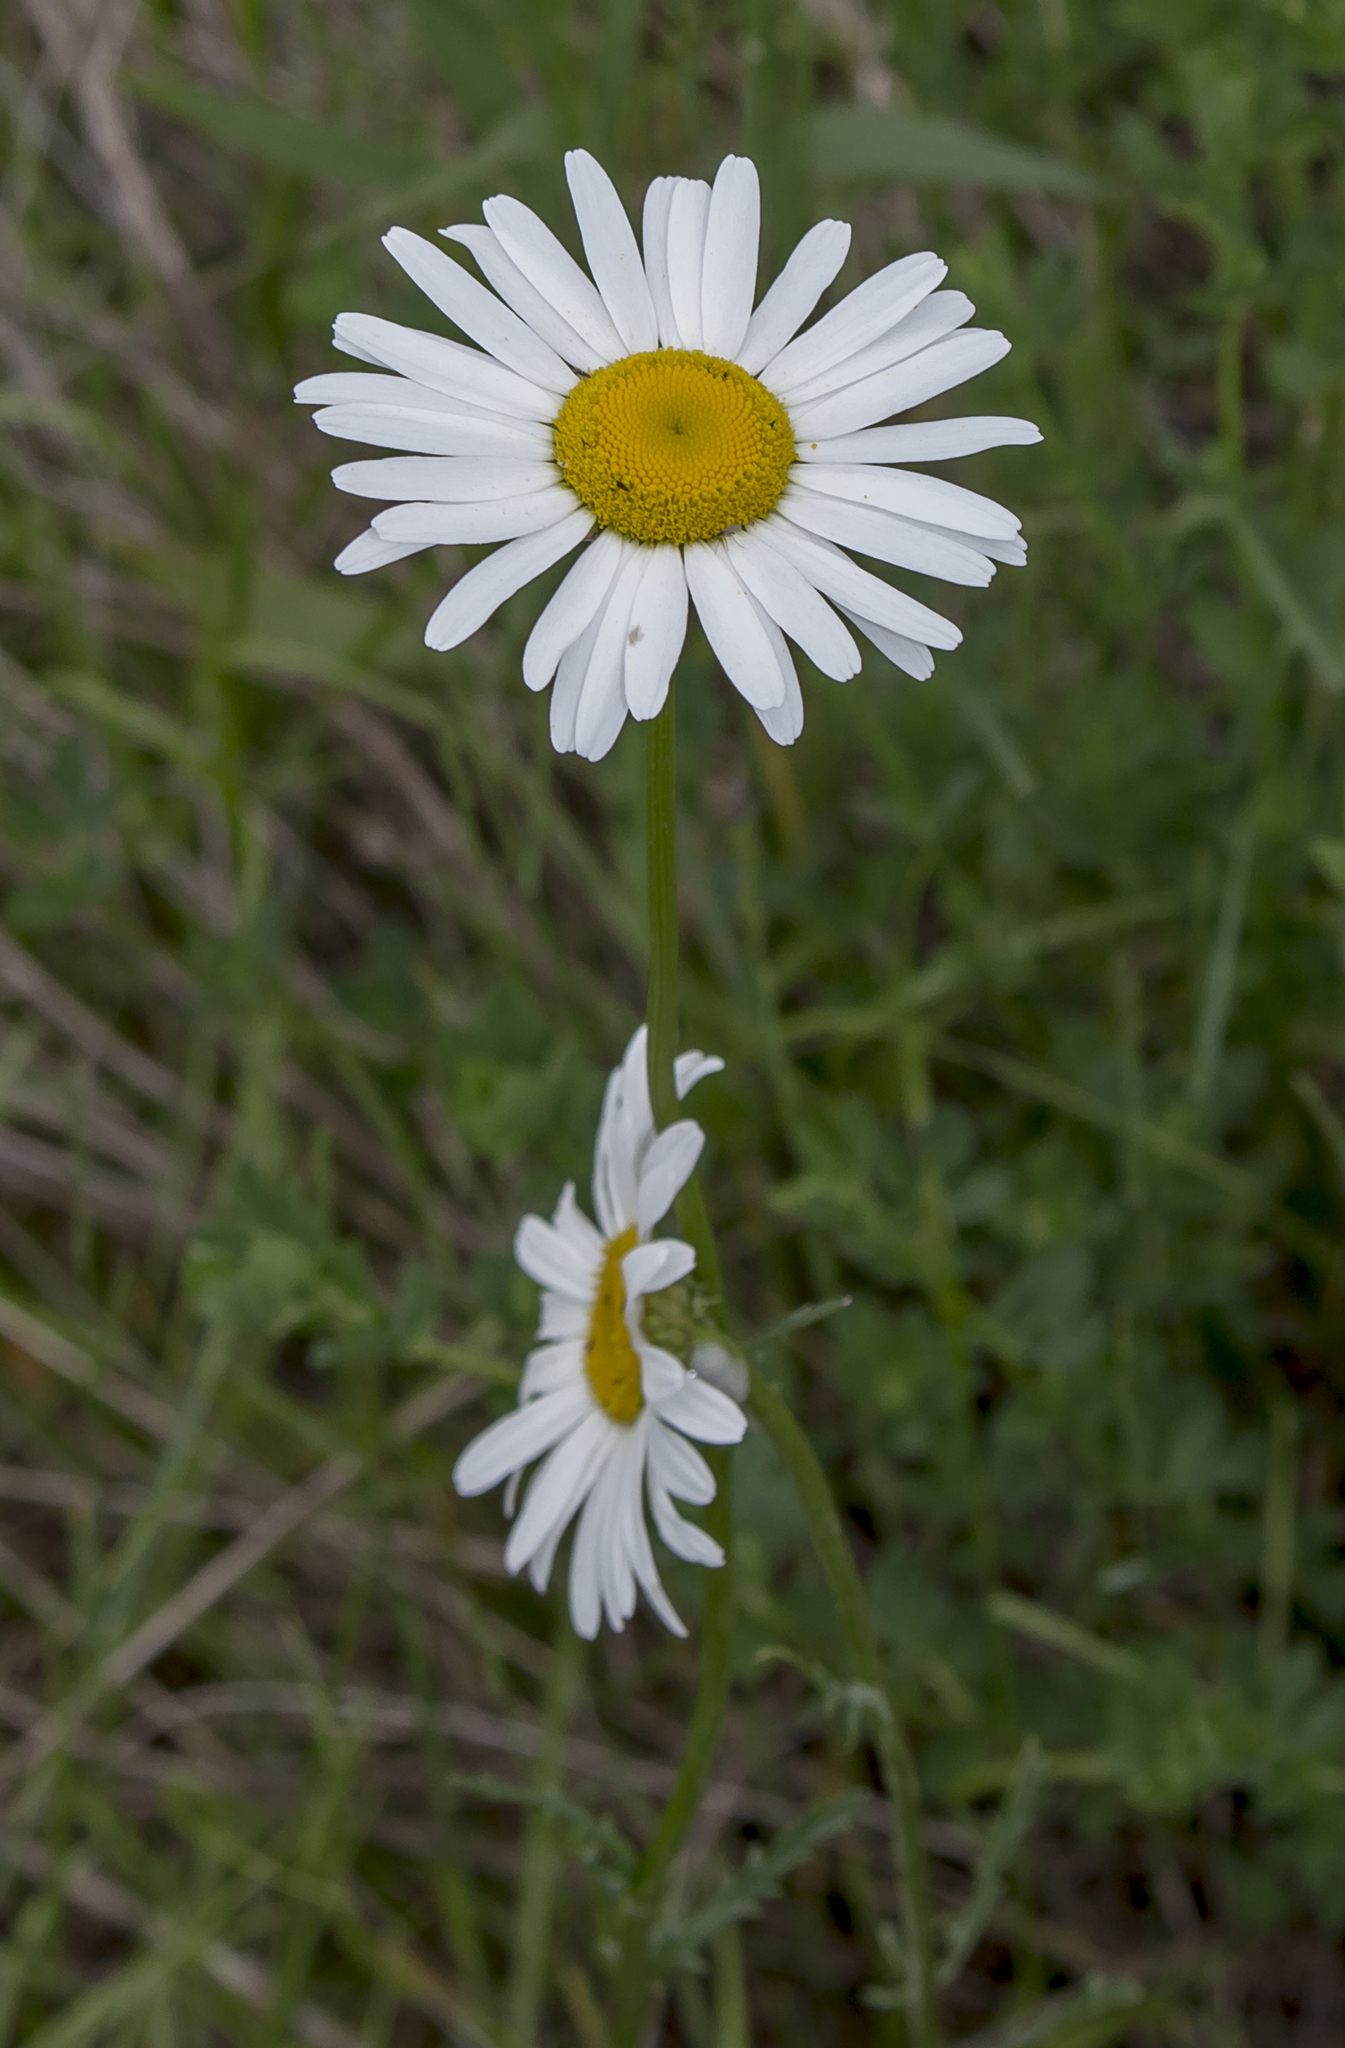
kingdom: Plantae
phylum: Tracheophyta
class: Magnoliopsida
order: Asterales
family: Asteraceae
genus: Leucanthemum
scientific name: Leucanthemum vulgare
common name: Oxeye daisy
